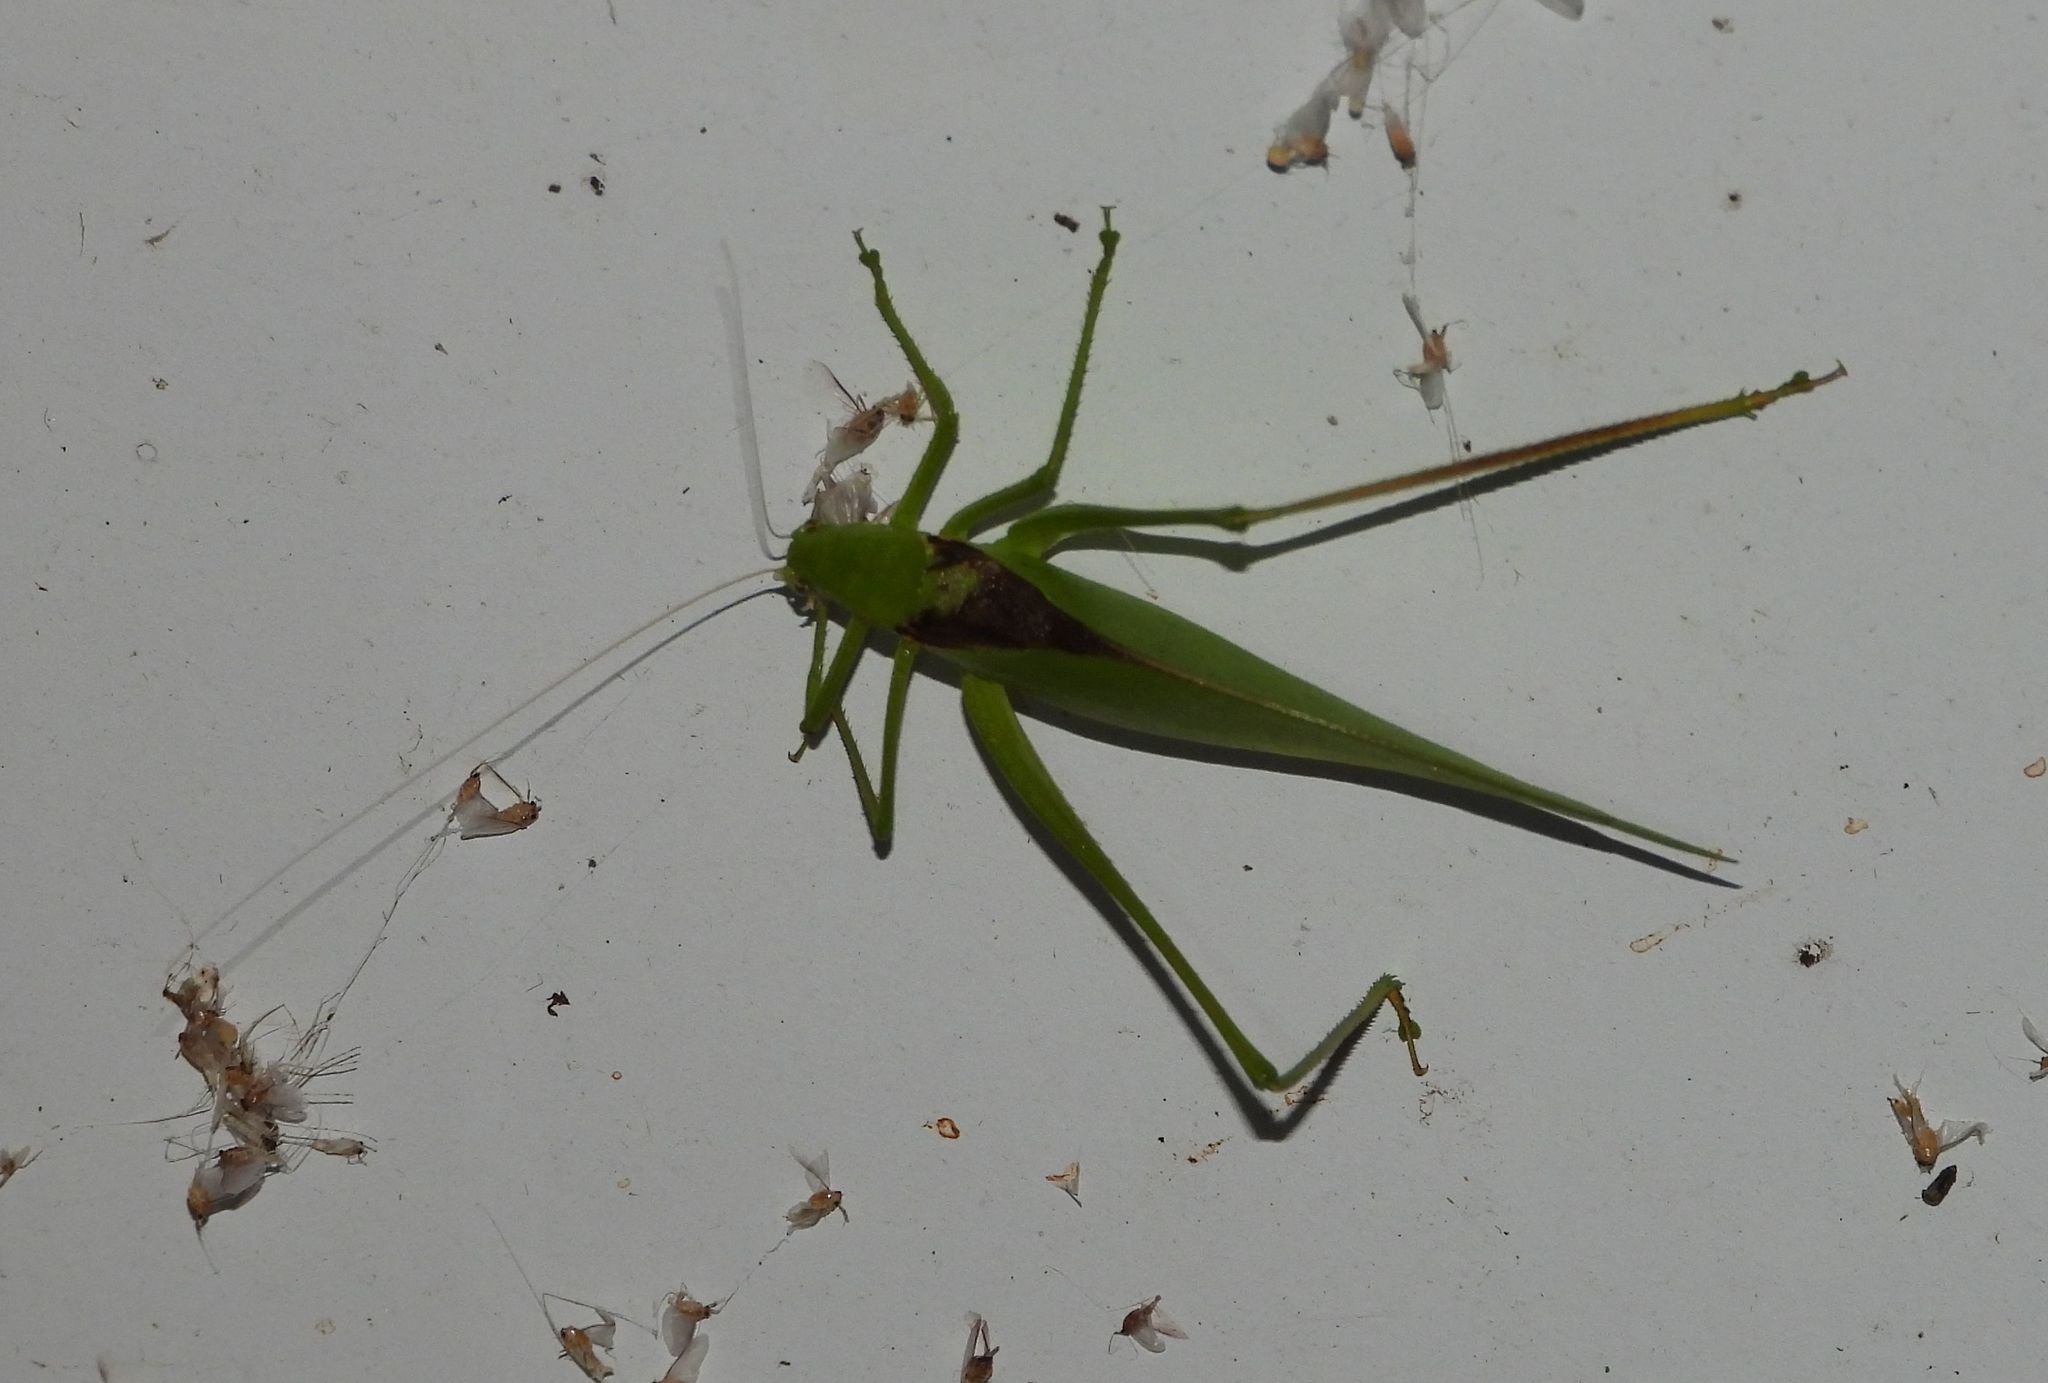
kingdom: Animalia
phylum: Arthropoda
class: Insecta
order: Orthoptera
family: Tettigoniidae
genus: Amblycorypha
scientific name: Amblycorypha oblongifolia
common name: Oblong-winged katydid
